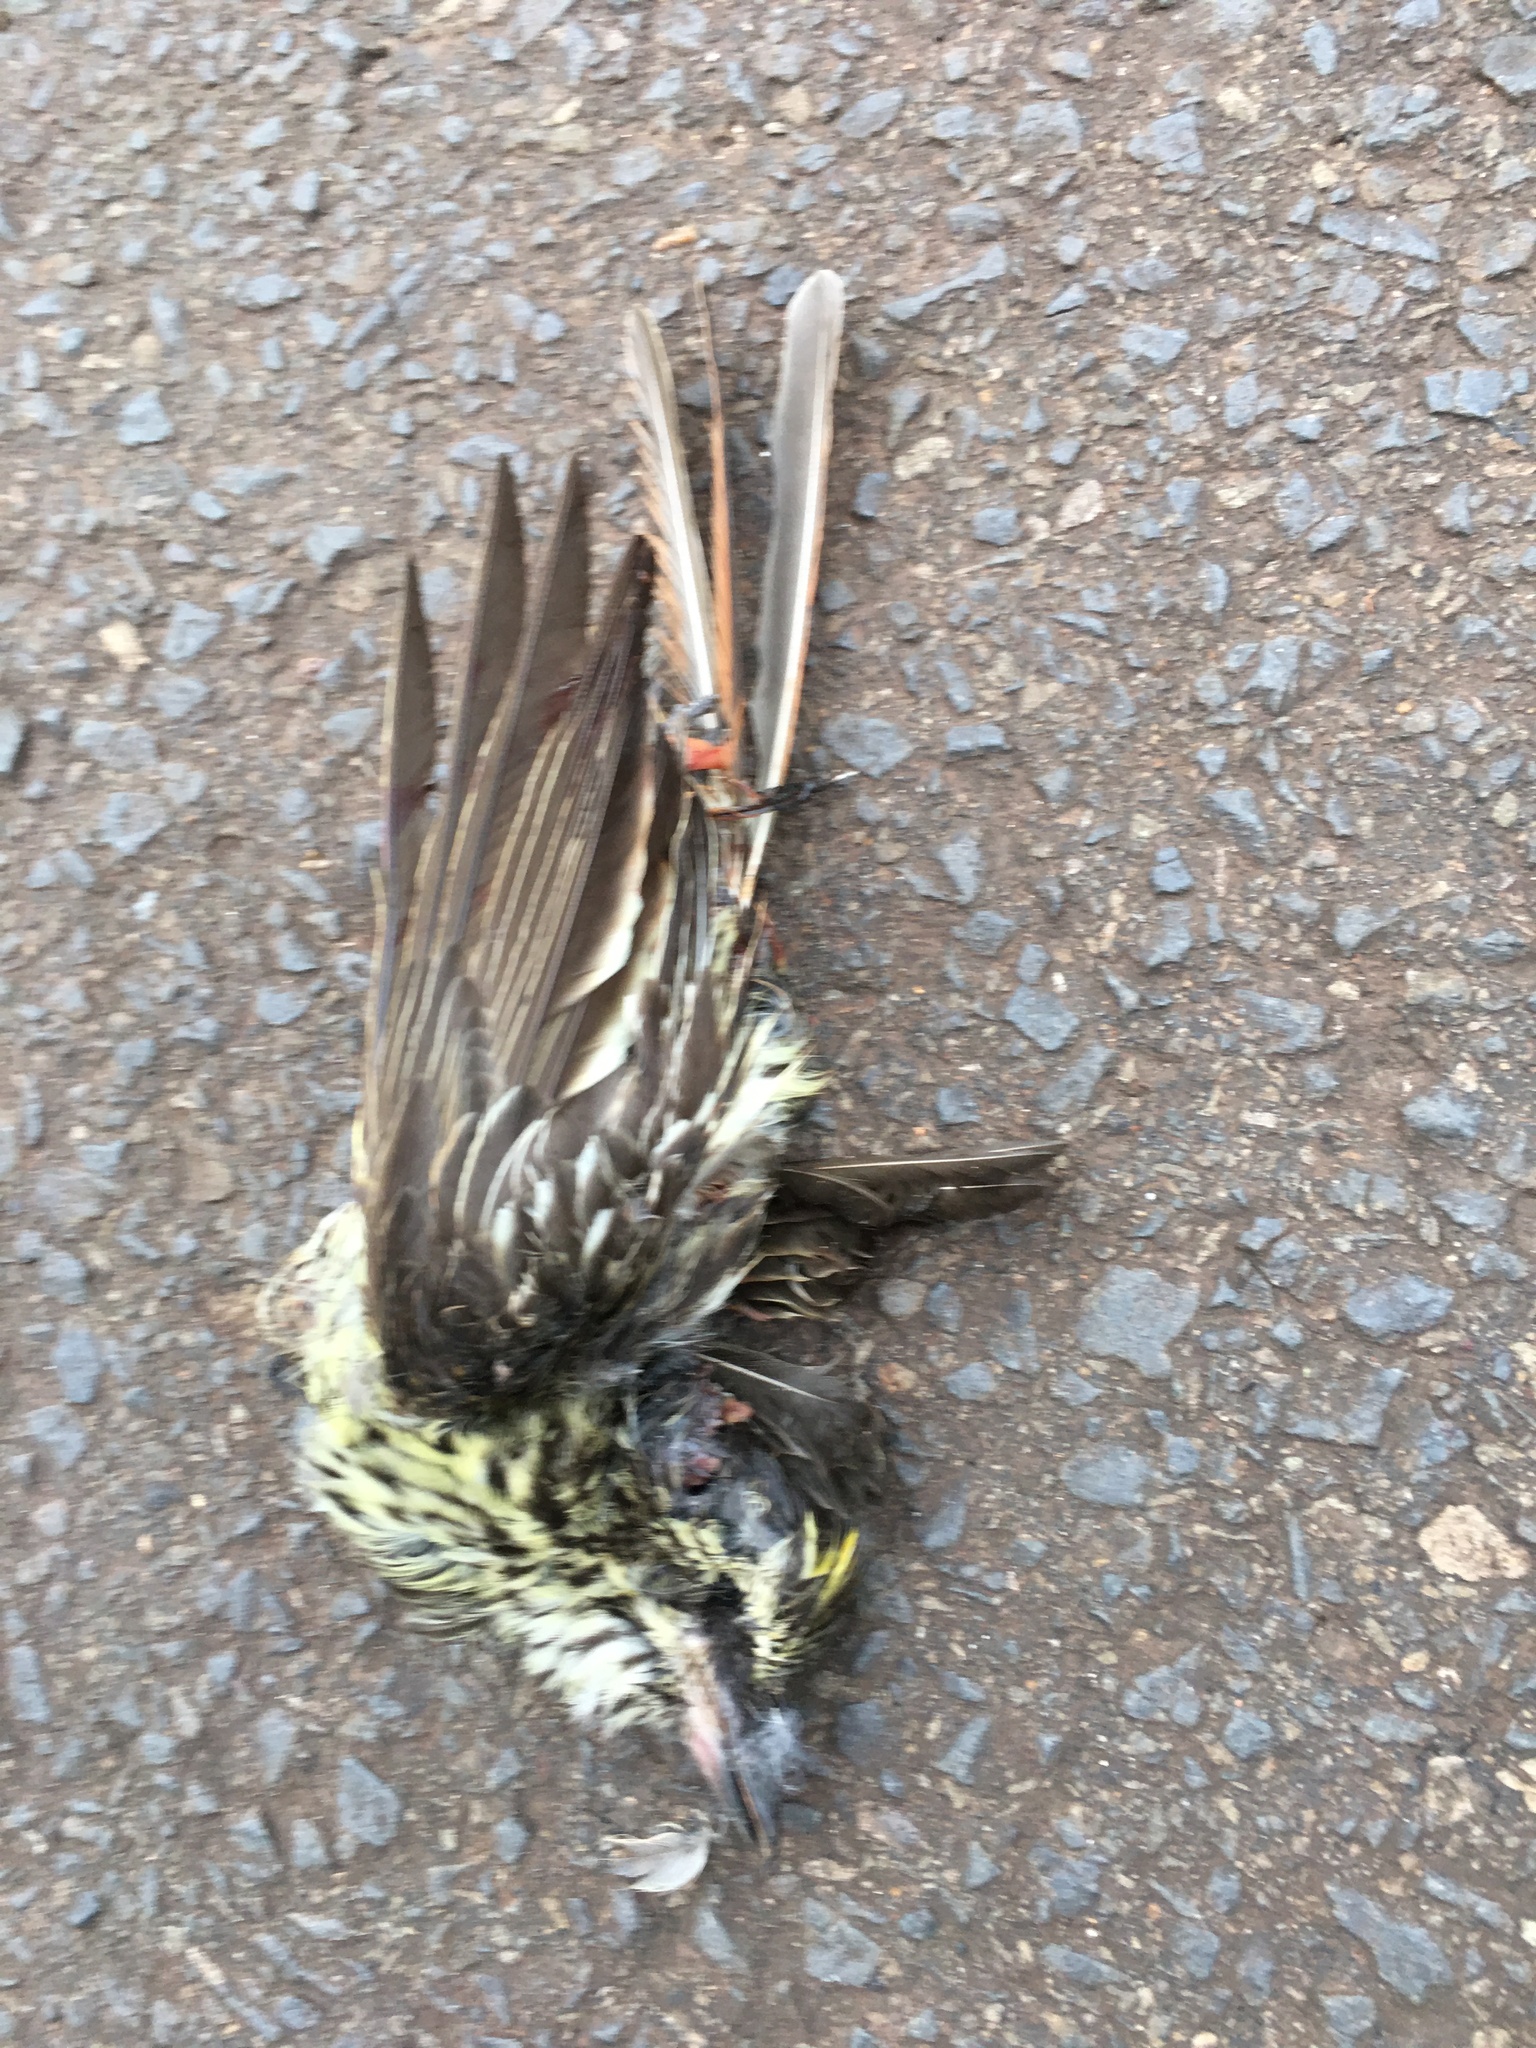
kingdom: Animalia
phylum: Chordata
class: Aves
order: Passeriformes
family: Tyrannidae
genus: Myiodynastes
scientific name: Myiodynastes maculatus
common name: Streaked flycatcher
